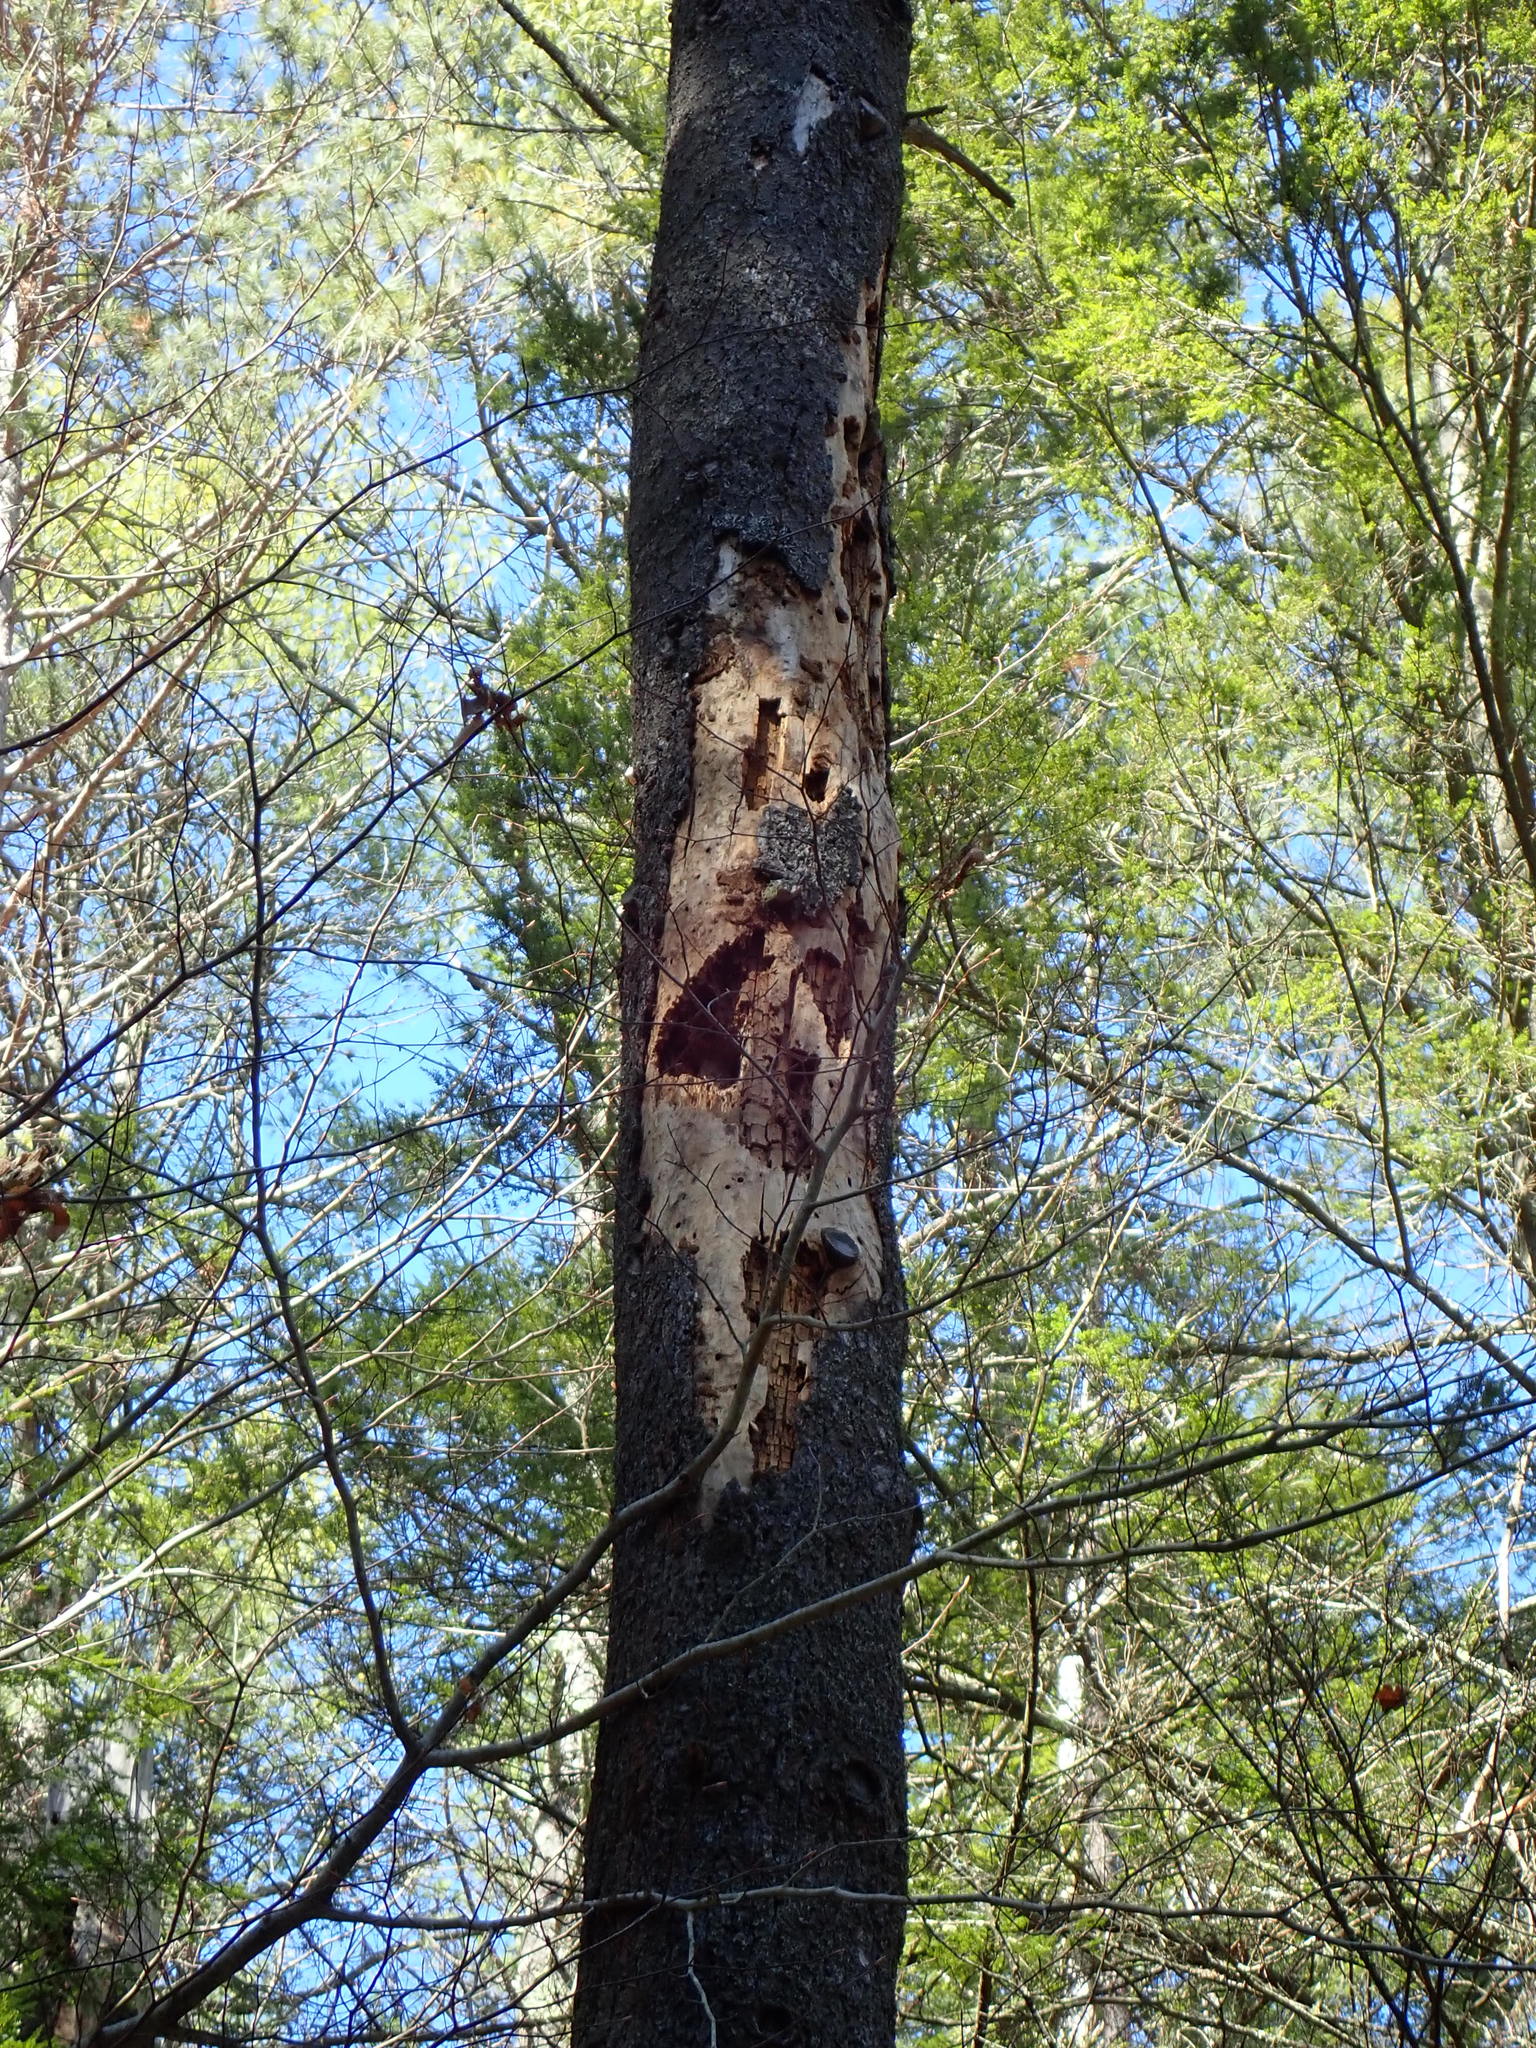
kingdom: Animalia
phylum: Chordata
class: Aves
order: Piciformes
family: Picidae
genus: Dryocopus
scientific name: Dryocopus pileatus
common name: Pileated woodpecker
